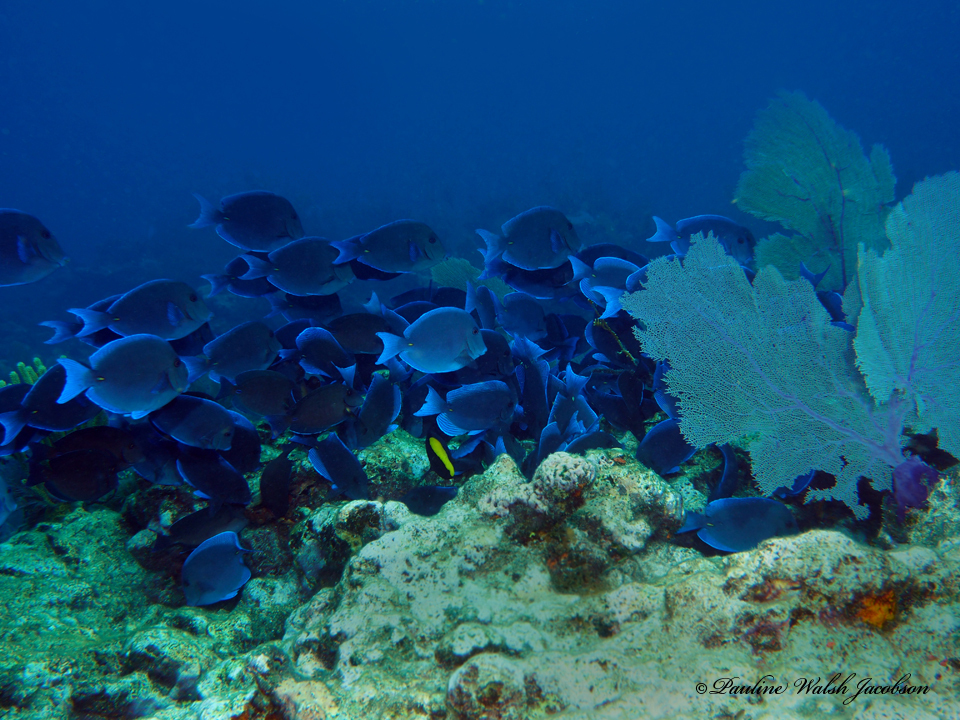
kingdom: Animalia
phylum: Chordata
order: Perciformes
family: Acanthuridae
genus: Acanthurus
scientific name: Acanthurus coeruleus
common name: Blue tang
